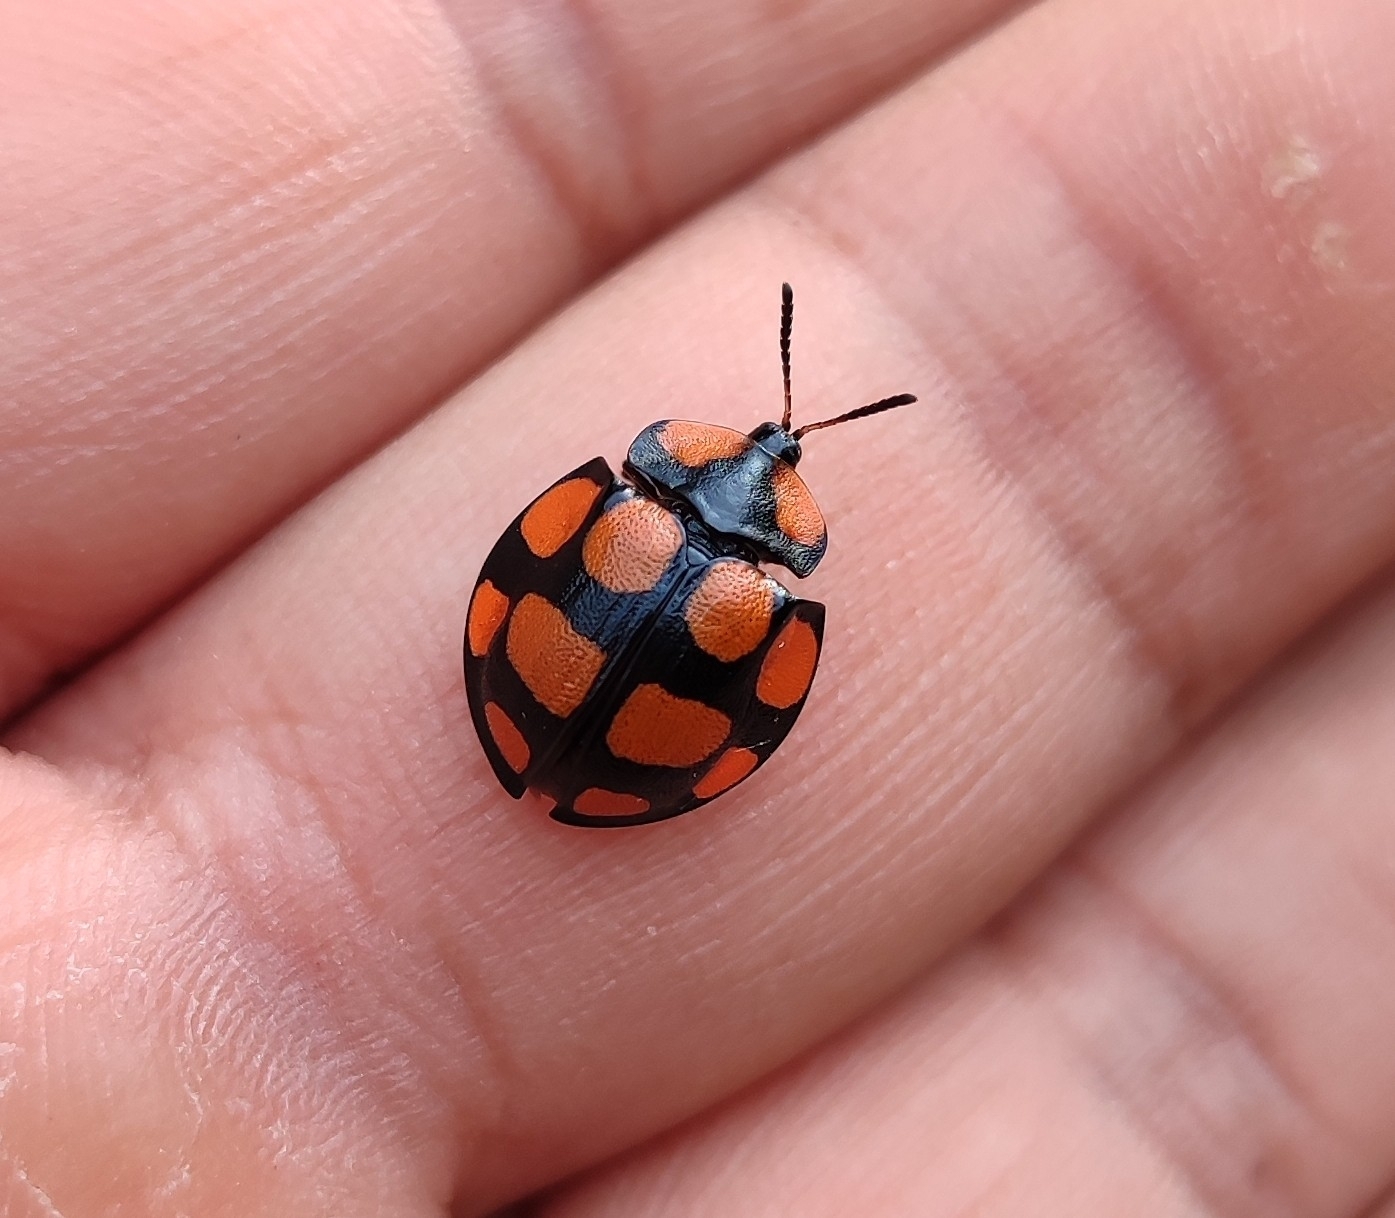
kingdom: Animalia
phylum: Arthropoda
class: Insecta
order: Coleoptera
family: Chrysomelidae
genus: Botanochara
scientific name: Botanochara decempustulata
